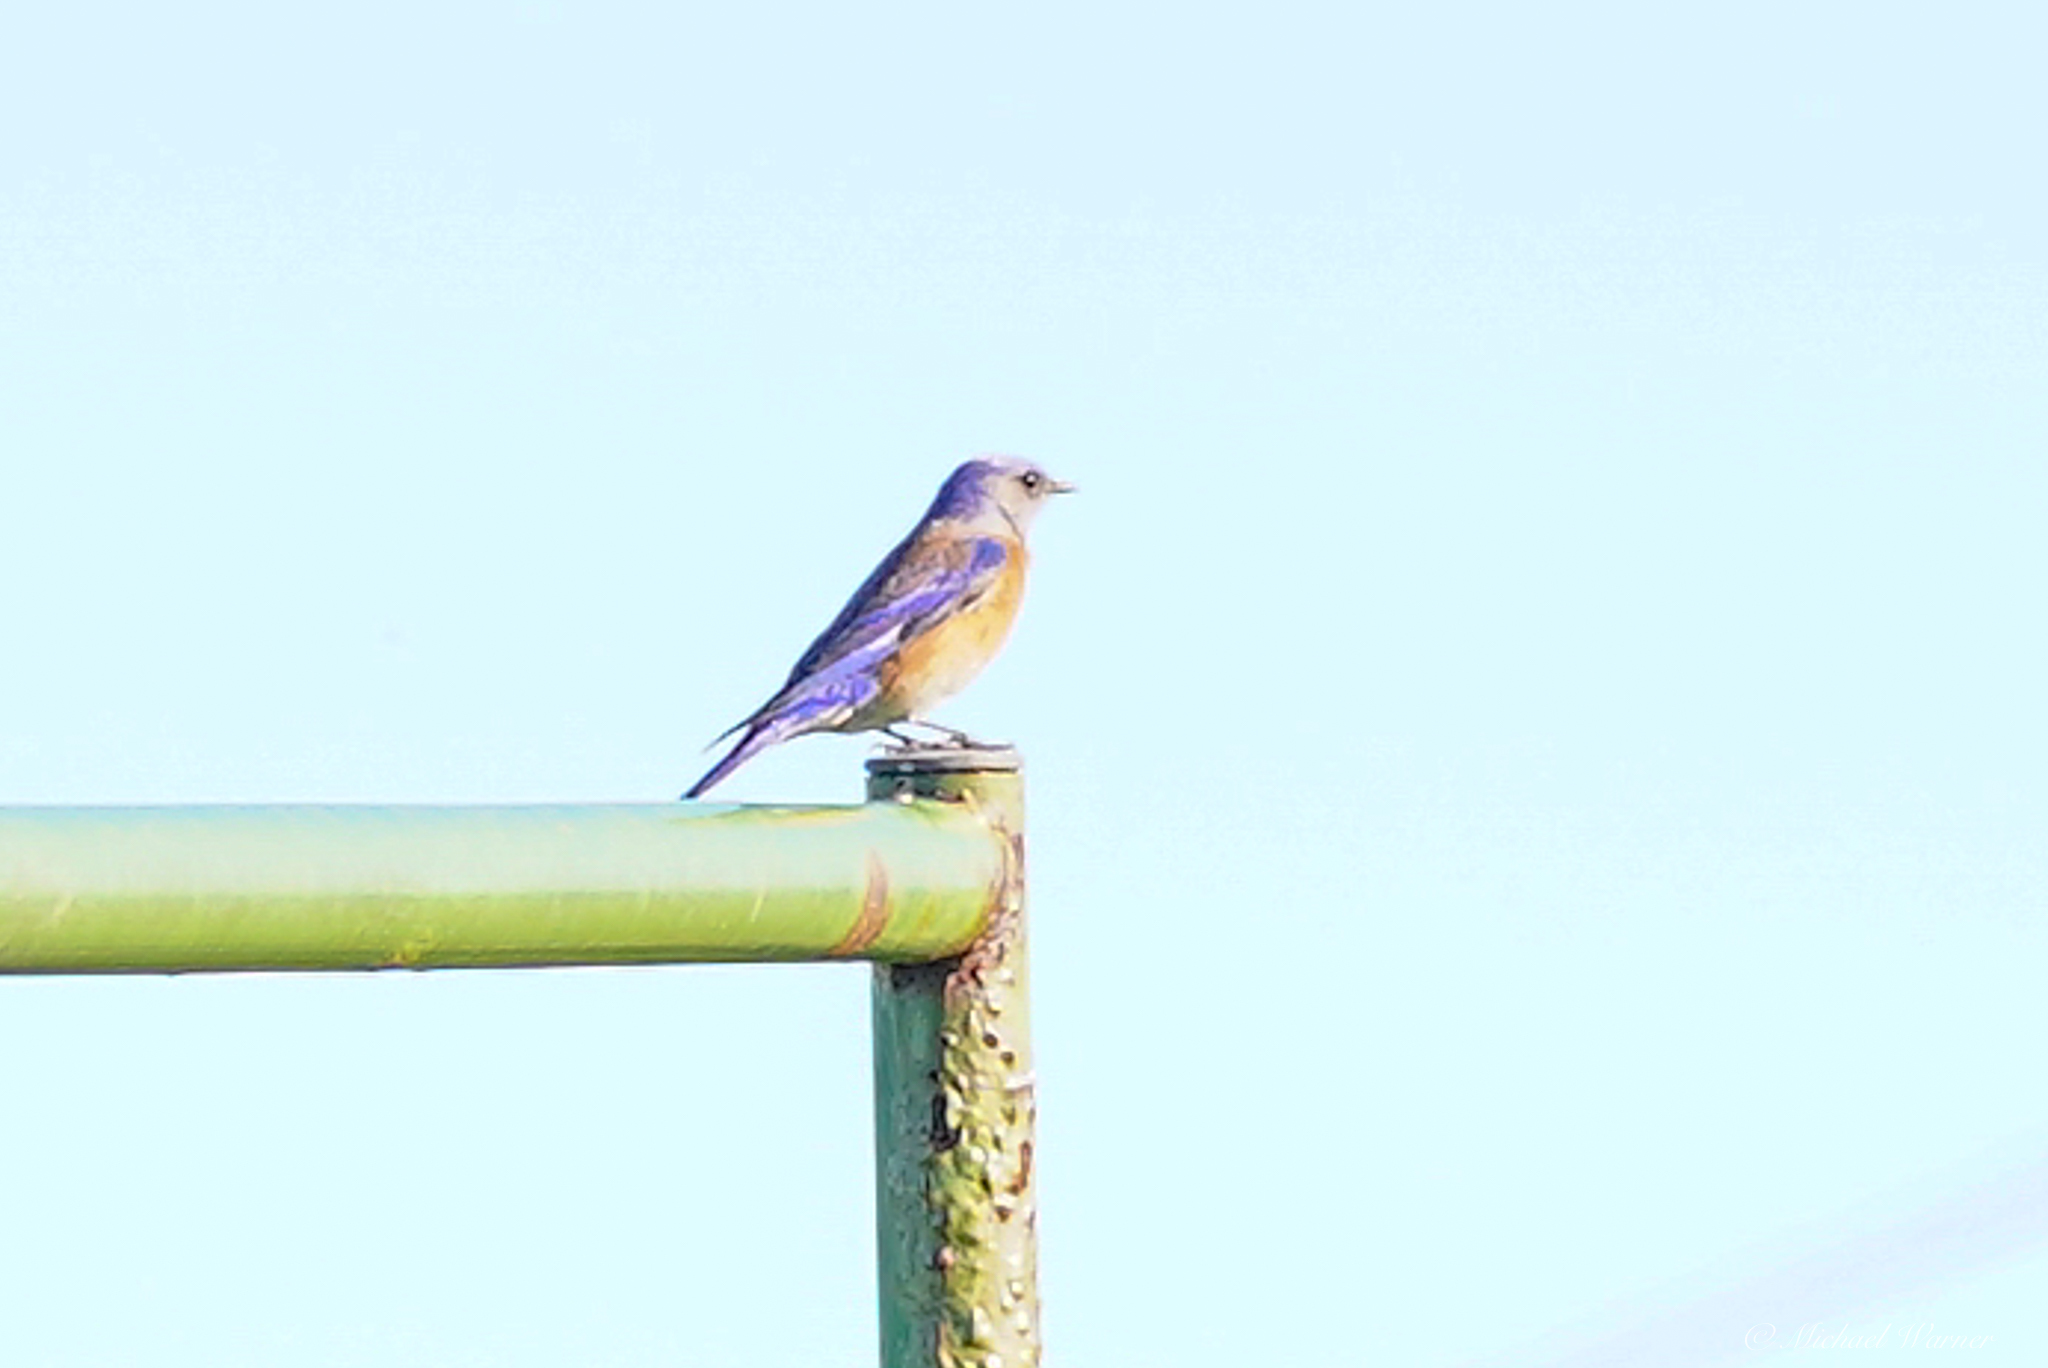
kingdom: Animalia
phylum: Chordata
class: Aves
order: Passeriformes
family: Turdidae
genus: Sialia
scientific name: Sialia mexicana
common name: Western bluebird
